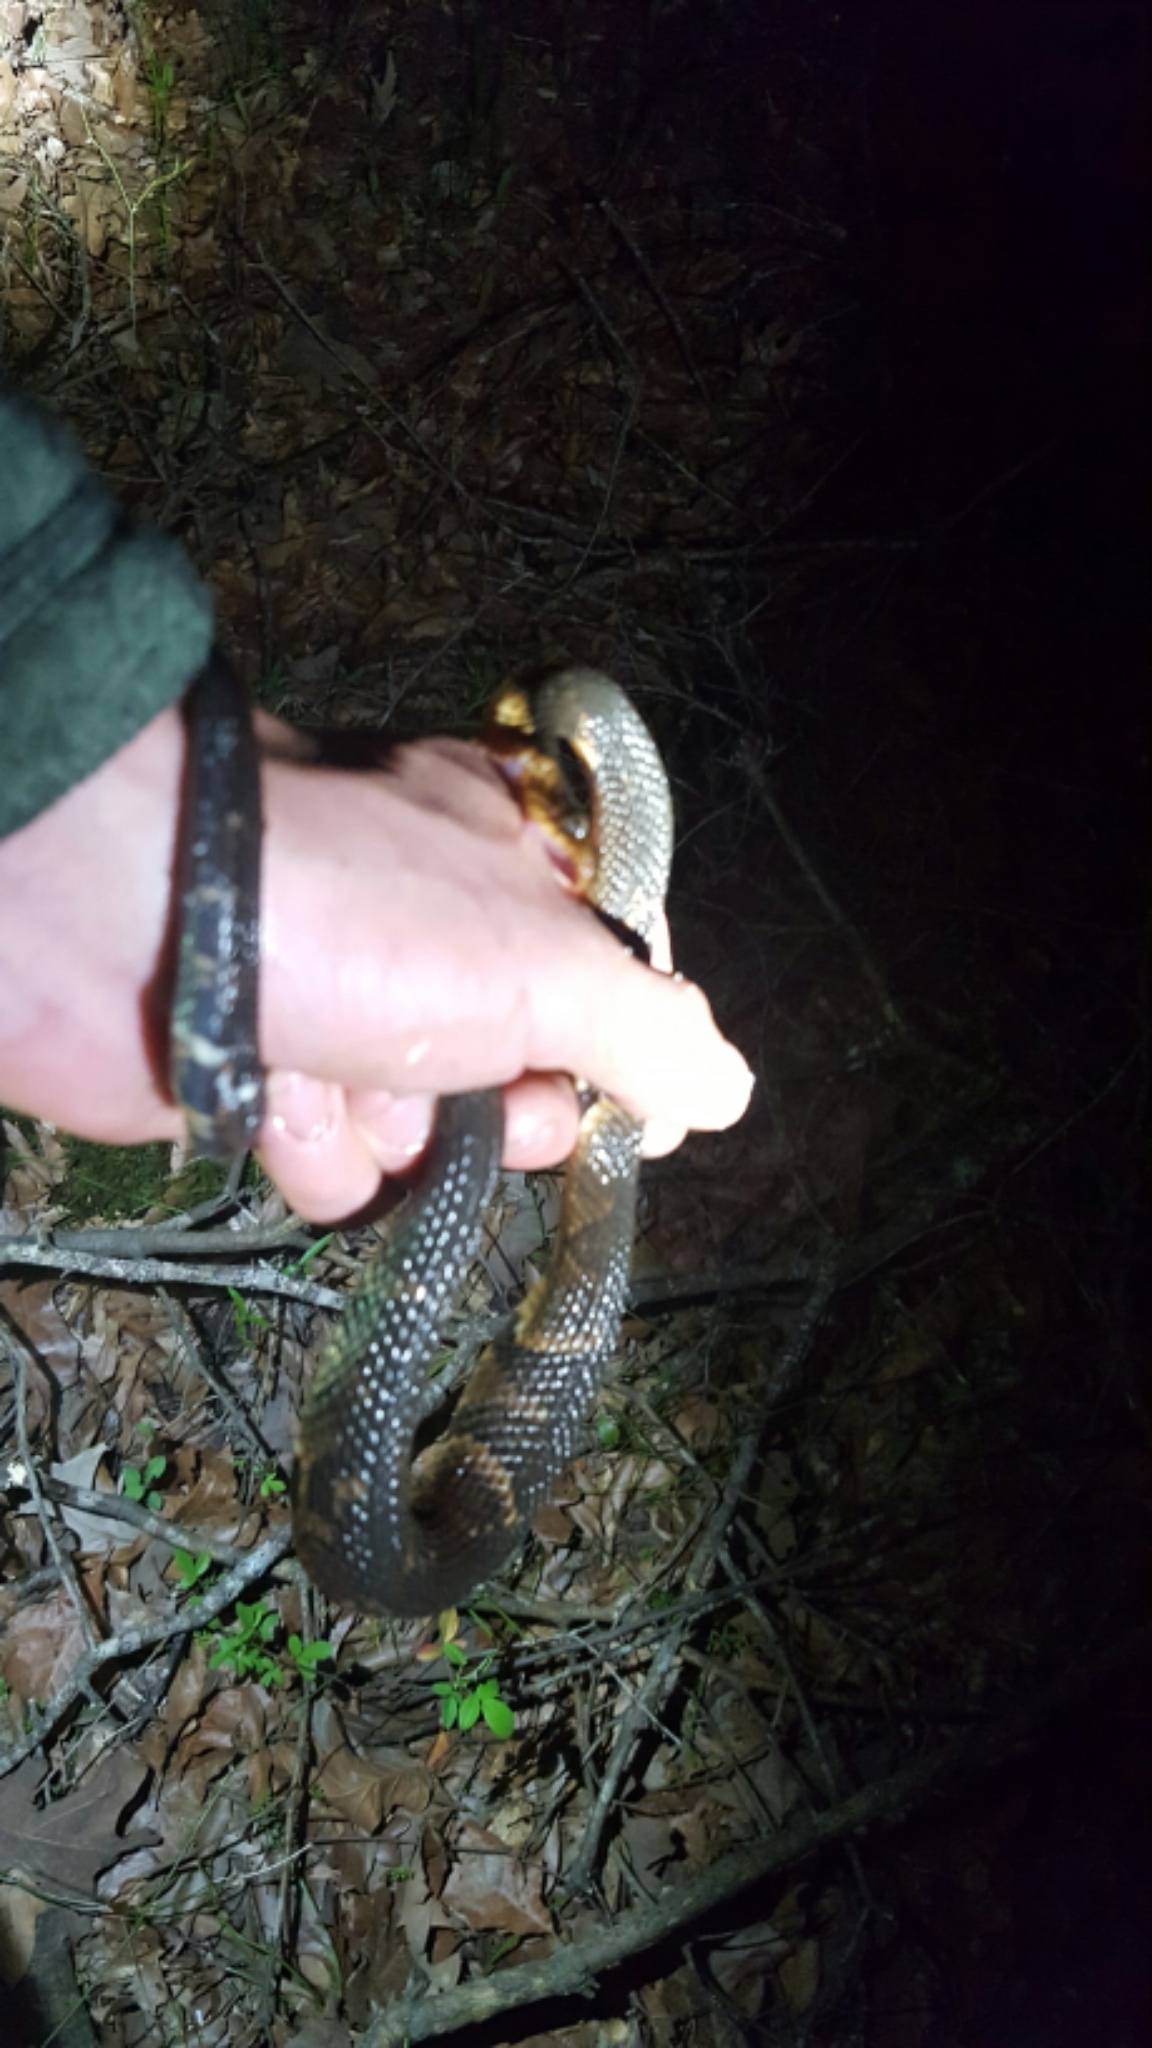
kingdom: Animalia
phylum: Chordata
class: Squamata
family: Colubridae
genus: Nerodia
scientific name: Nerodia fasciata
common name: Southern water snake
